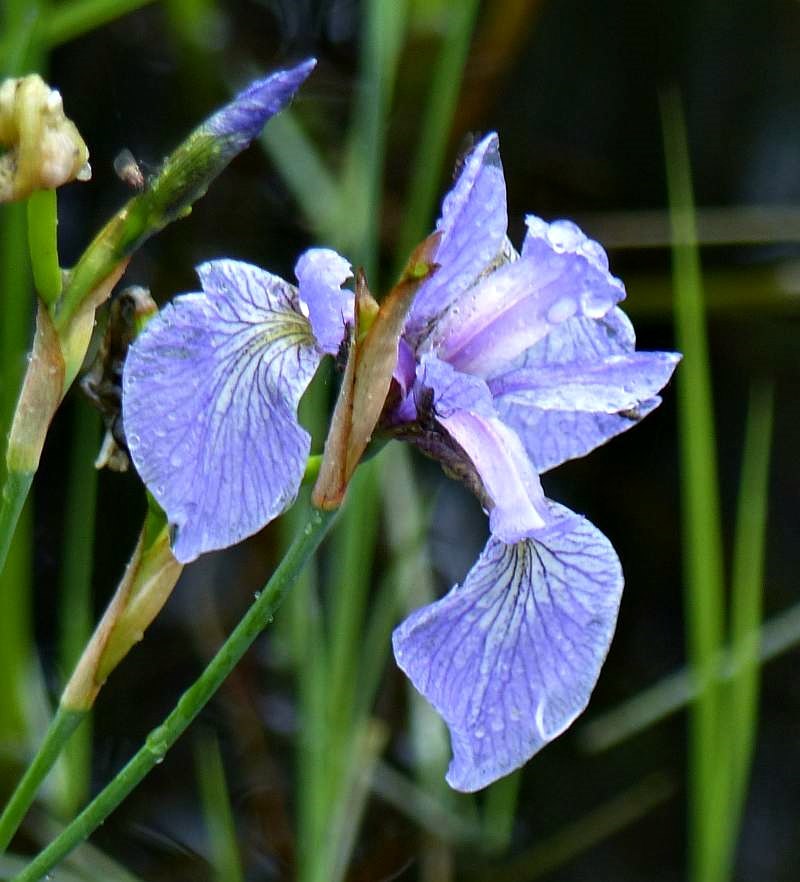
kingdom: Plantae
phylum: Tracheophyta
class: Liliopsida
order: Asparagales
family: Iridaceae
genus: Iris
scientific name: Iris versicolor
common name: Purple iris
